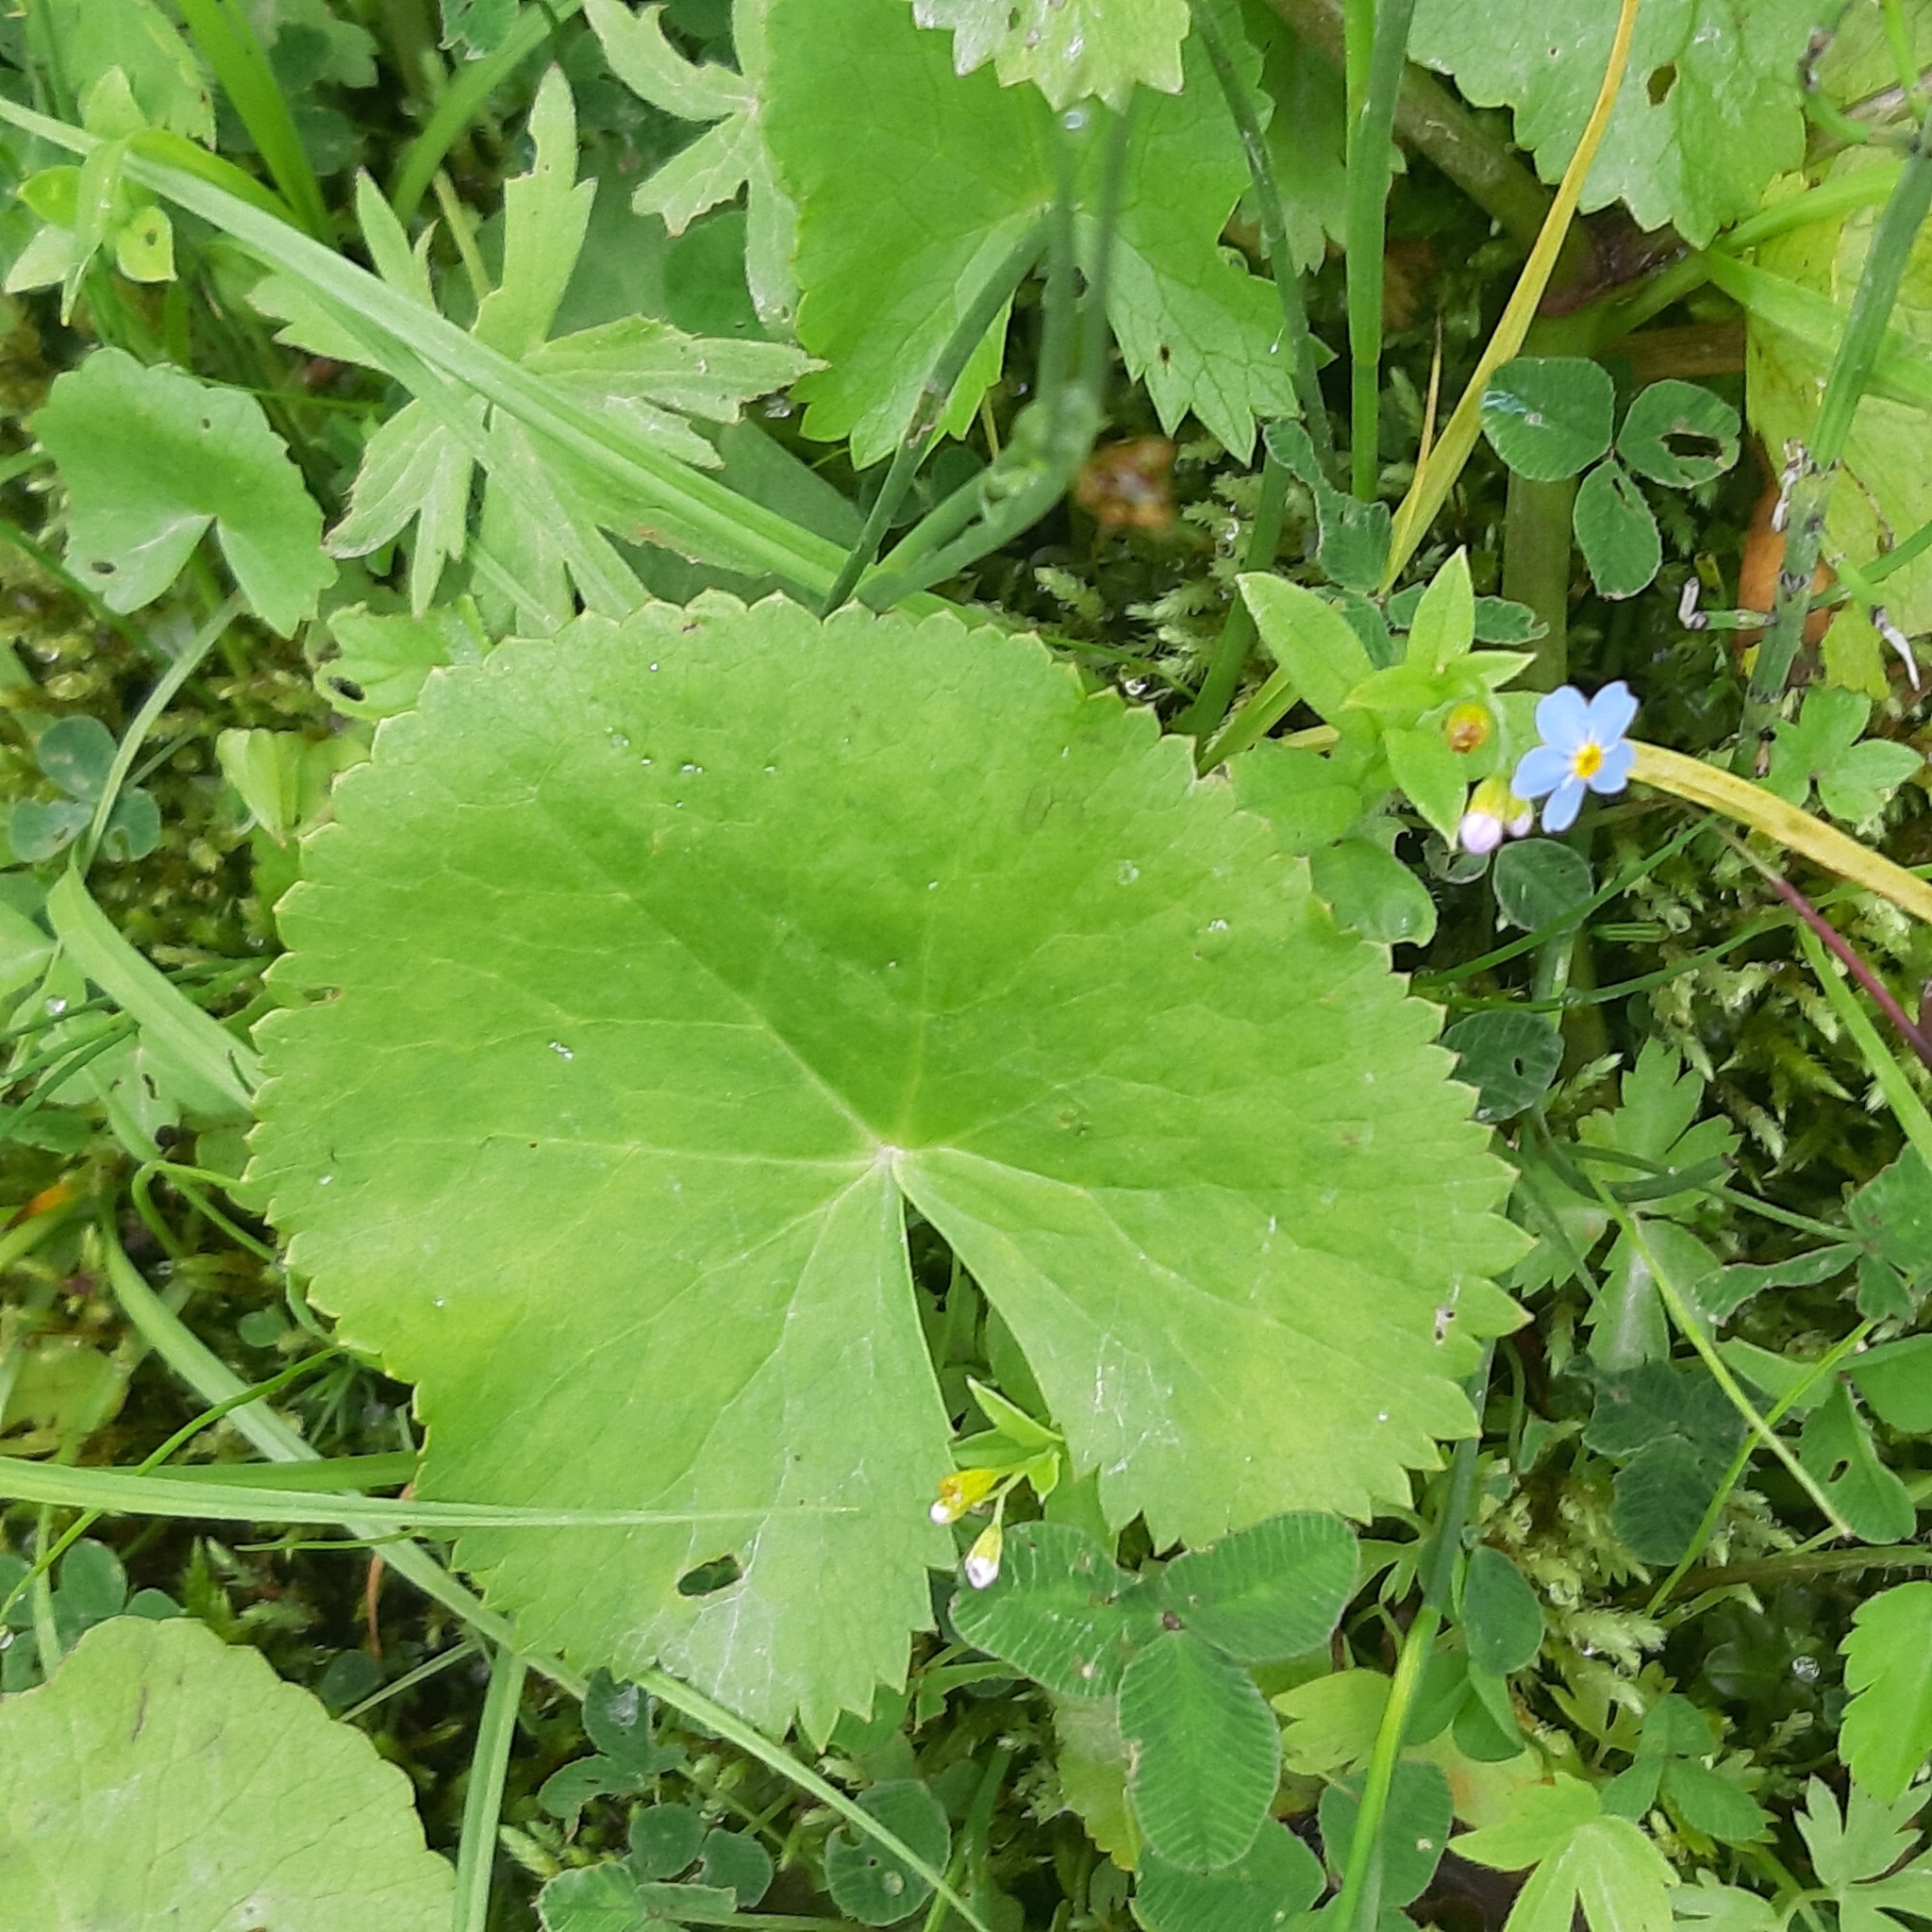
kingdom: Plantae
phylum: Tracheophyta
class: Magnoliopsida
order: Ranunculales
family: Ranunculaceae
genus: Caltha
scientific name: Caltha palustris
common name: Marsh marigold
